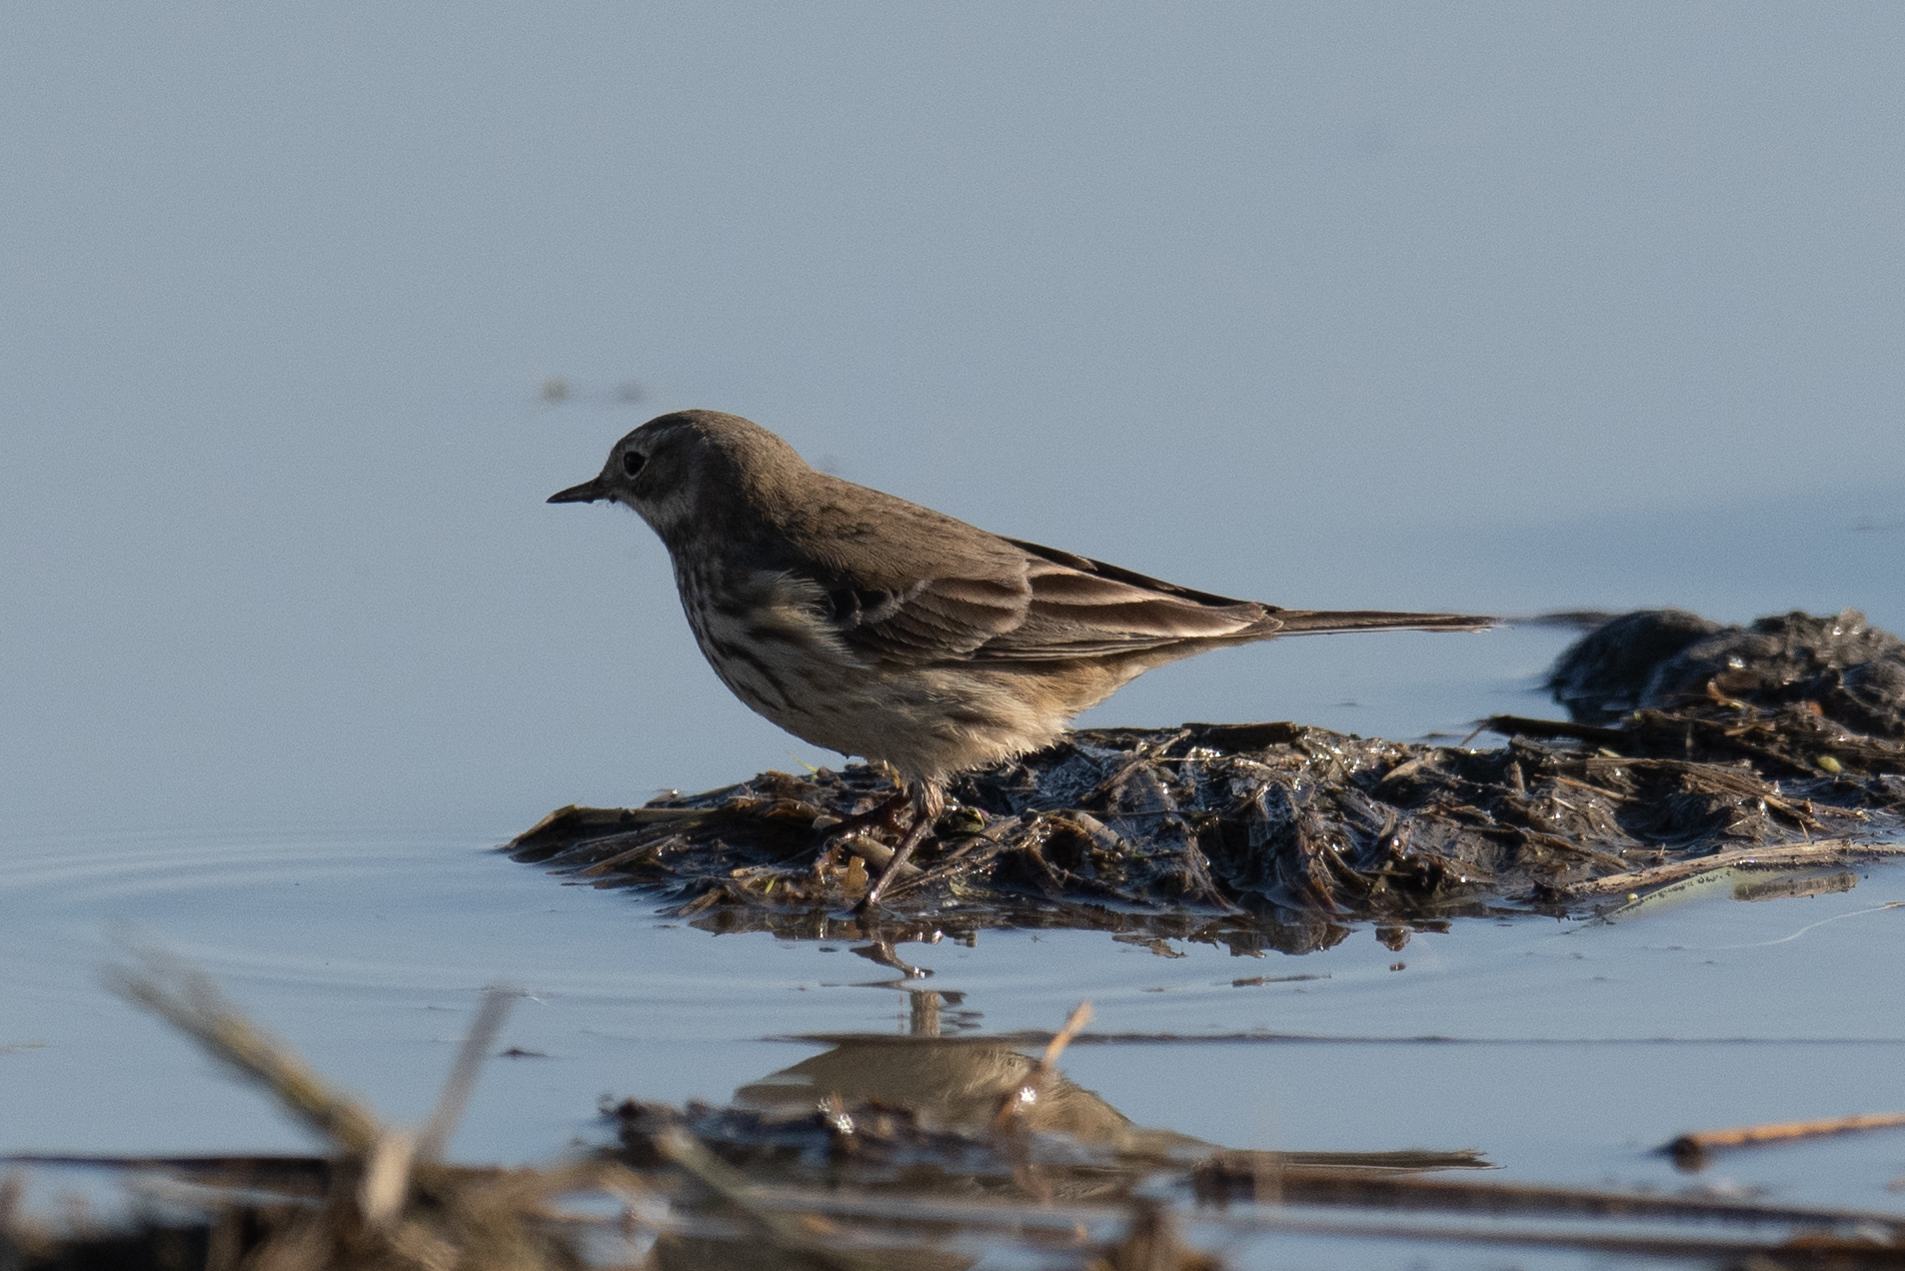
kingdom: Animalia
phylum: Chordata
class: Aves
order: Passeriformes
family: Motacillidae
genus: Anthus
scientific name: Anthus rubescens
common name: Buff-bellied pipit
